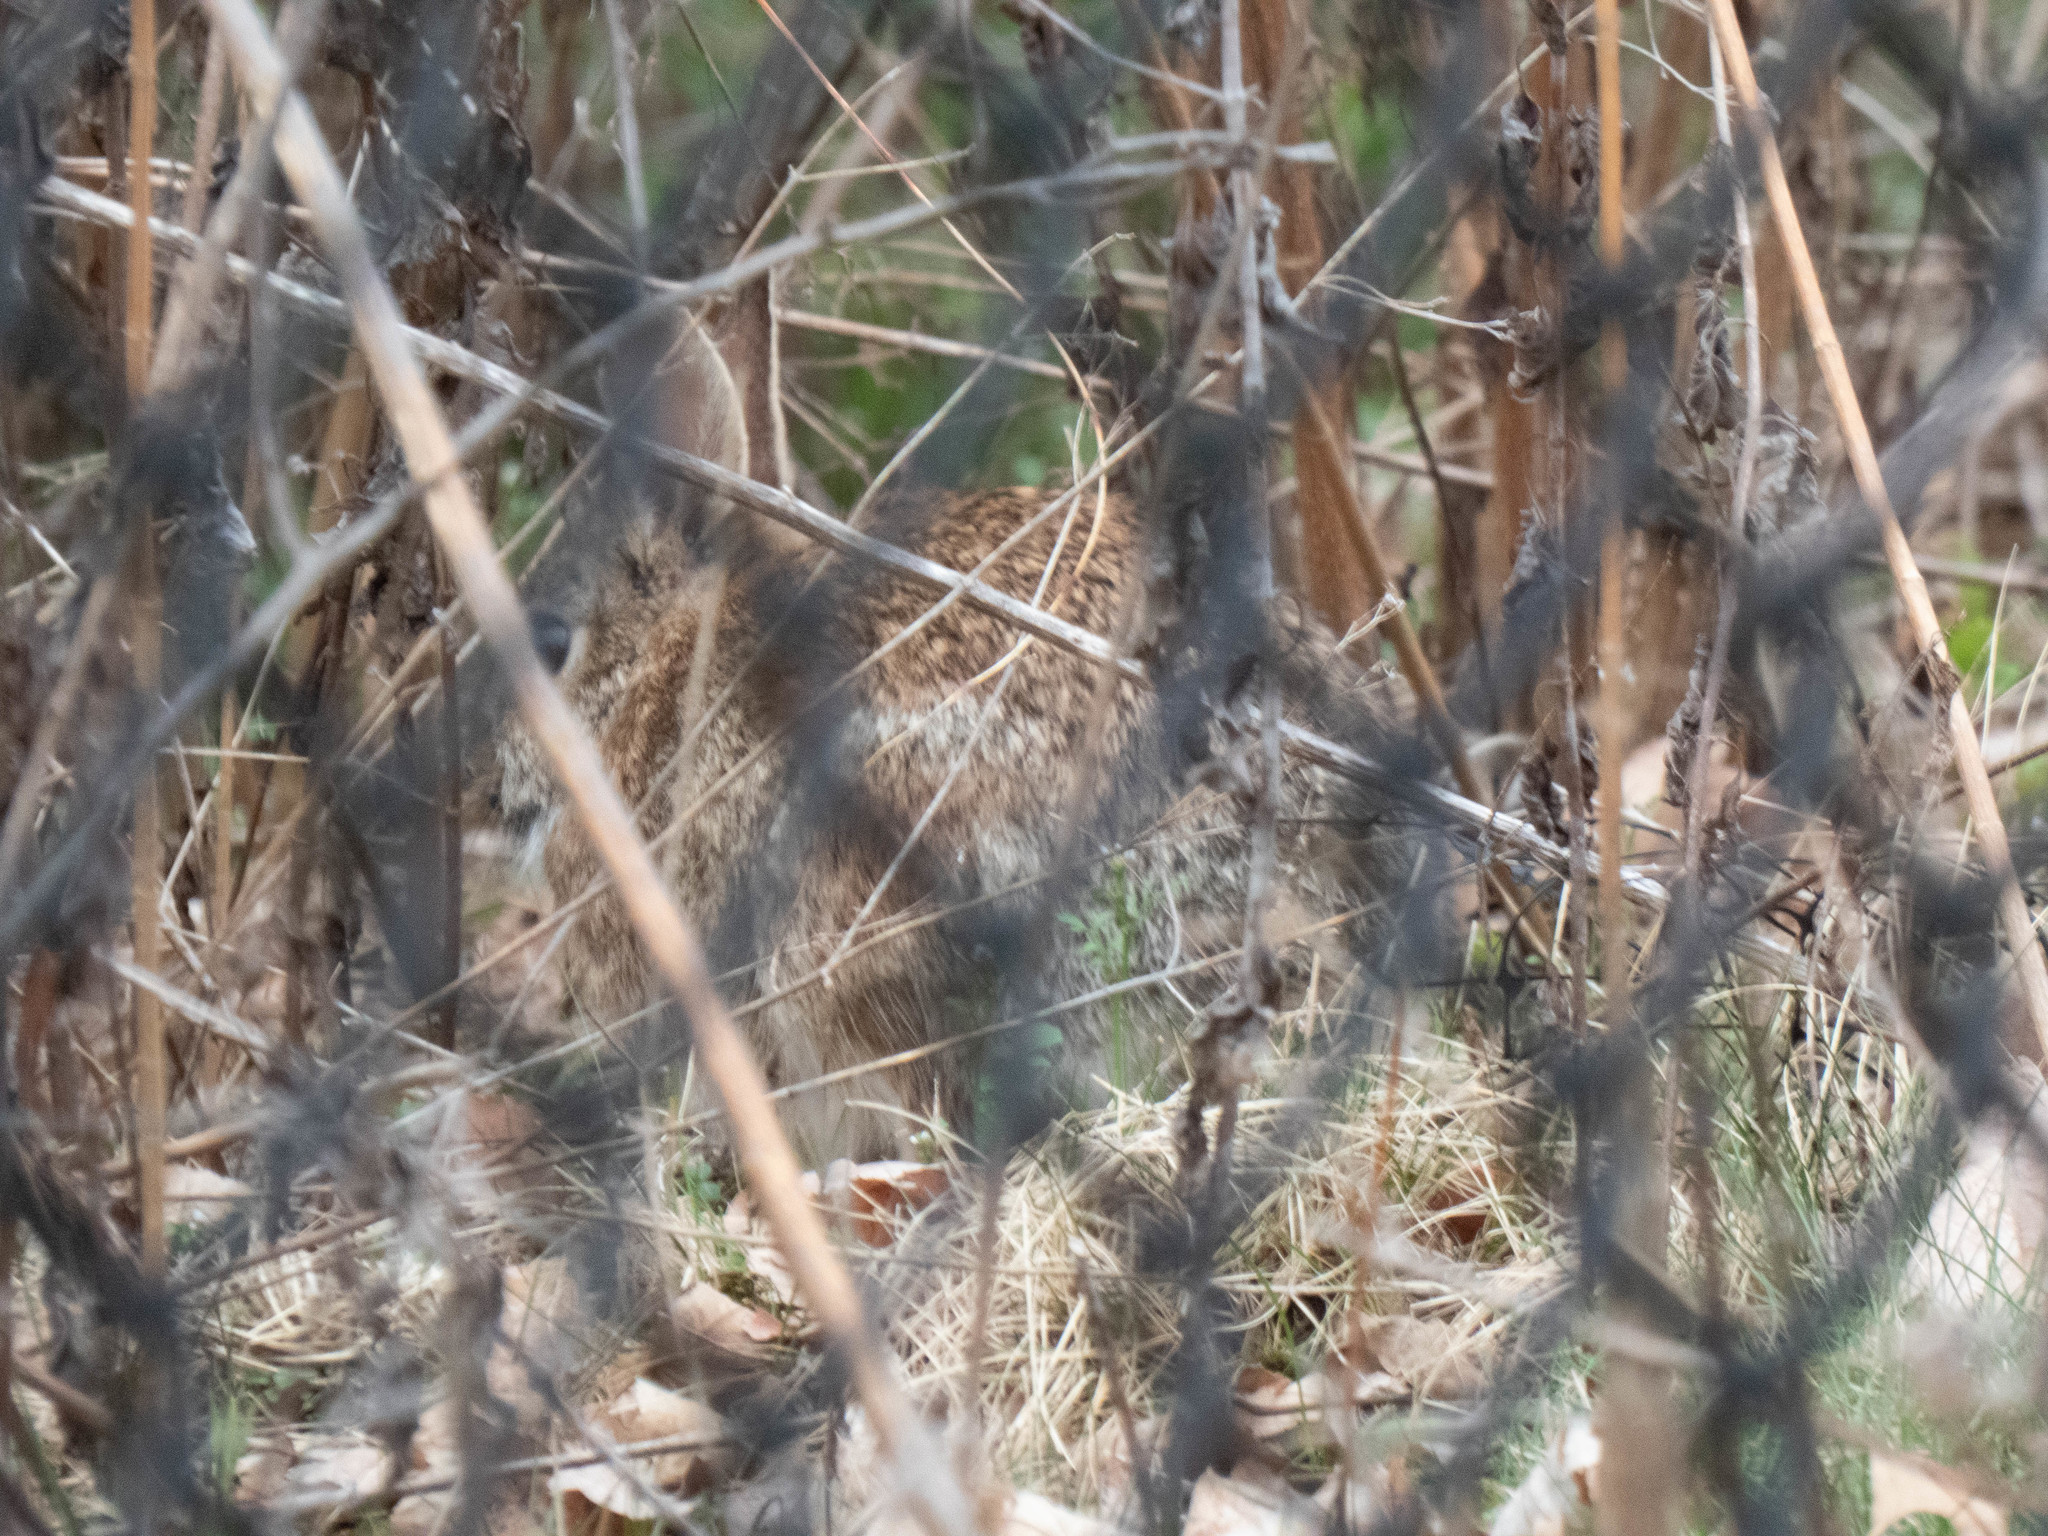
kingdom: Animalia
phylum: Chordata
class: Mammalia
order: Lagomorpha
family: Leporidae
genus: Sylvilagus
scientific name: Sylvilagus floridanus
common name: Eastern cottontail
